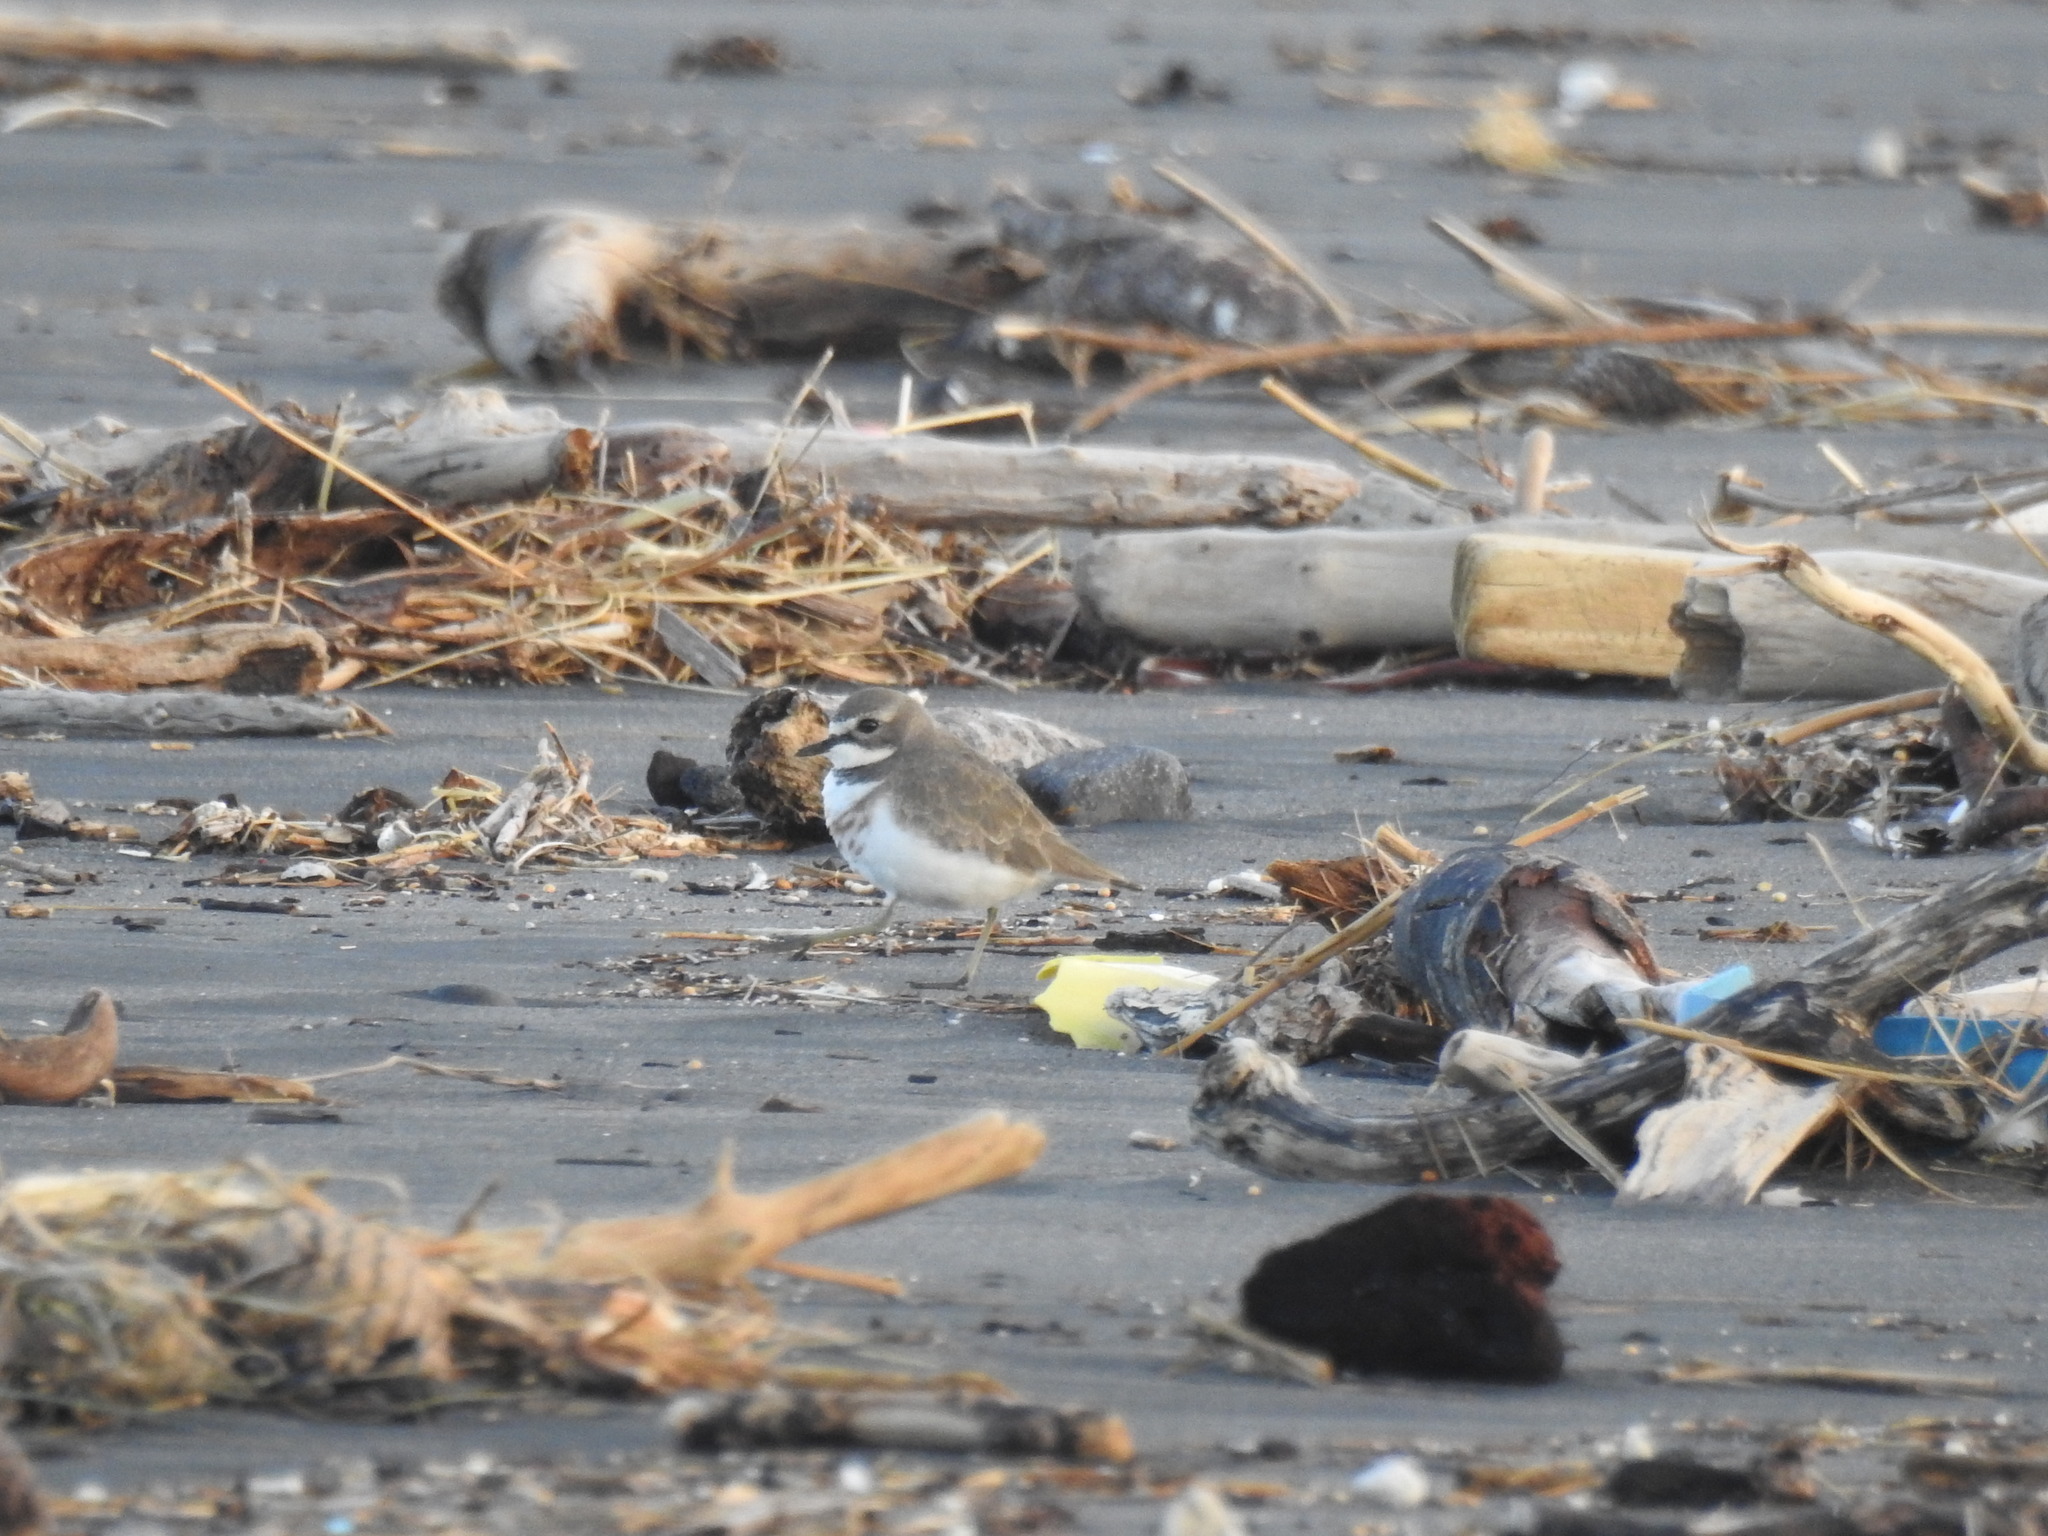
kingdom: Animalia
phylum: Chordata
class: Aves
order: Charadriiformes
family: Charadriidae
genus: Anarhynchus
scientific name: Anarhynchus
